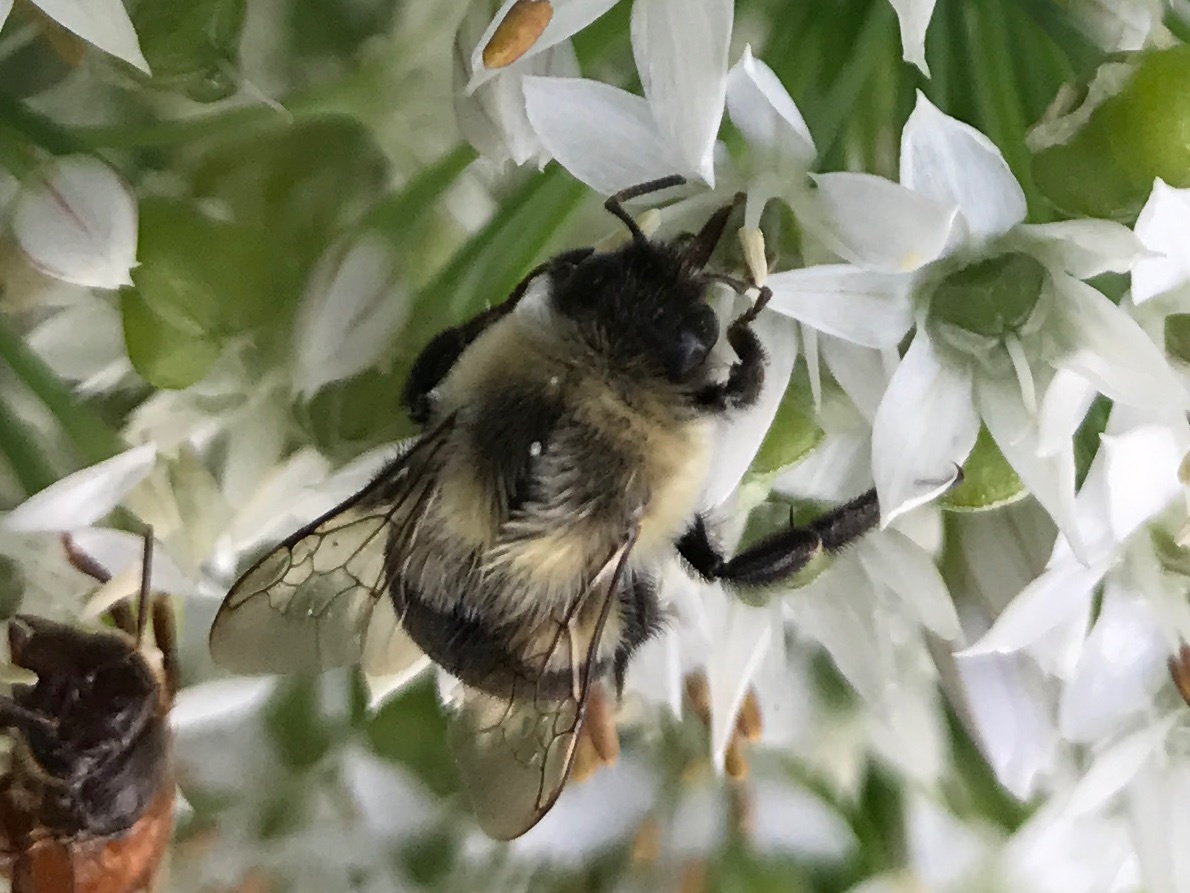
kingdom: Animalia
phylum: Arthropoda
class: Insecta
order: Hymenoptera
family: Apidae
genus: Bombus
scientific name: Bombus impatiens
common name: Common eastern bumble bee
